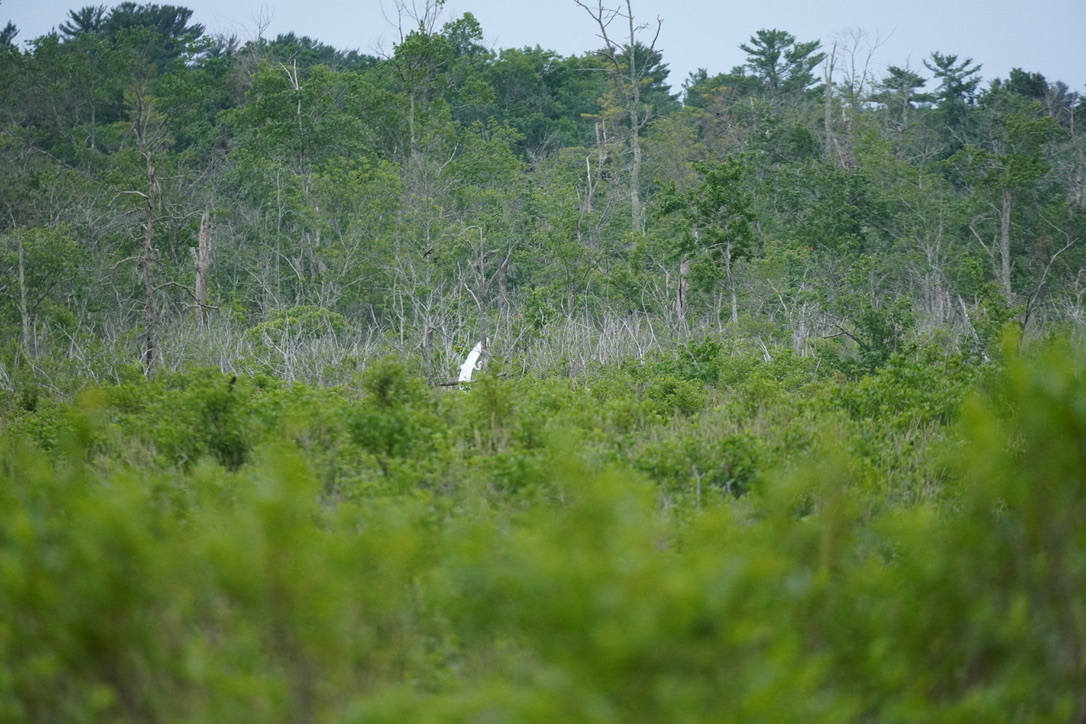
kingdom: Animalia
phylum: Chordata
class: Aves
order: Pelecaniformes
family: Ardeidae
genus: Ardea
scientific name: Ardea alba
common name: Great egret
